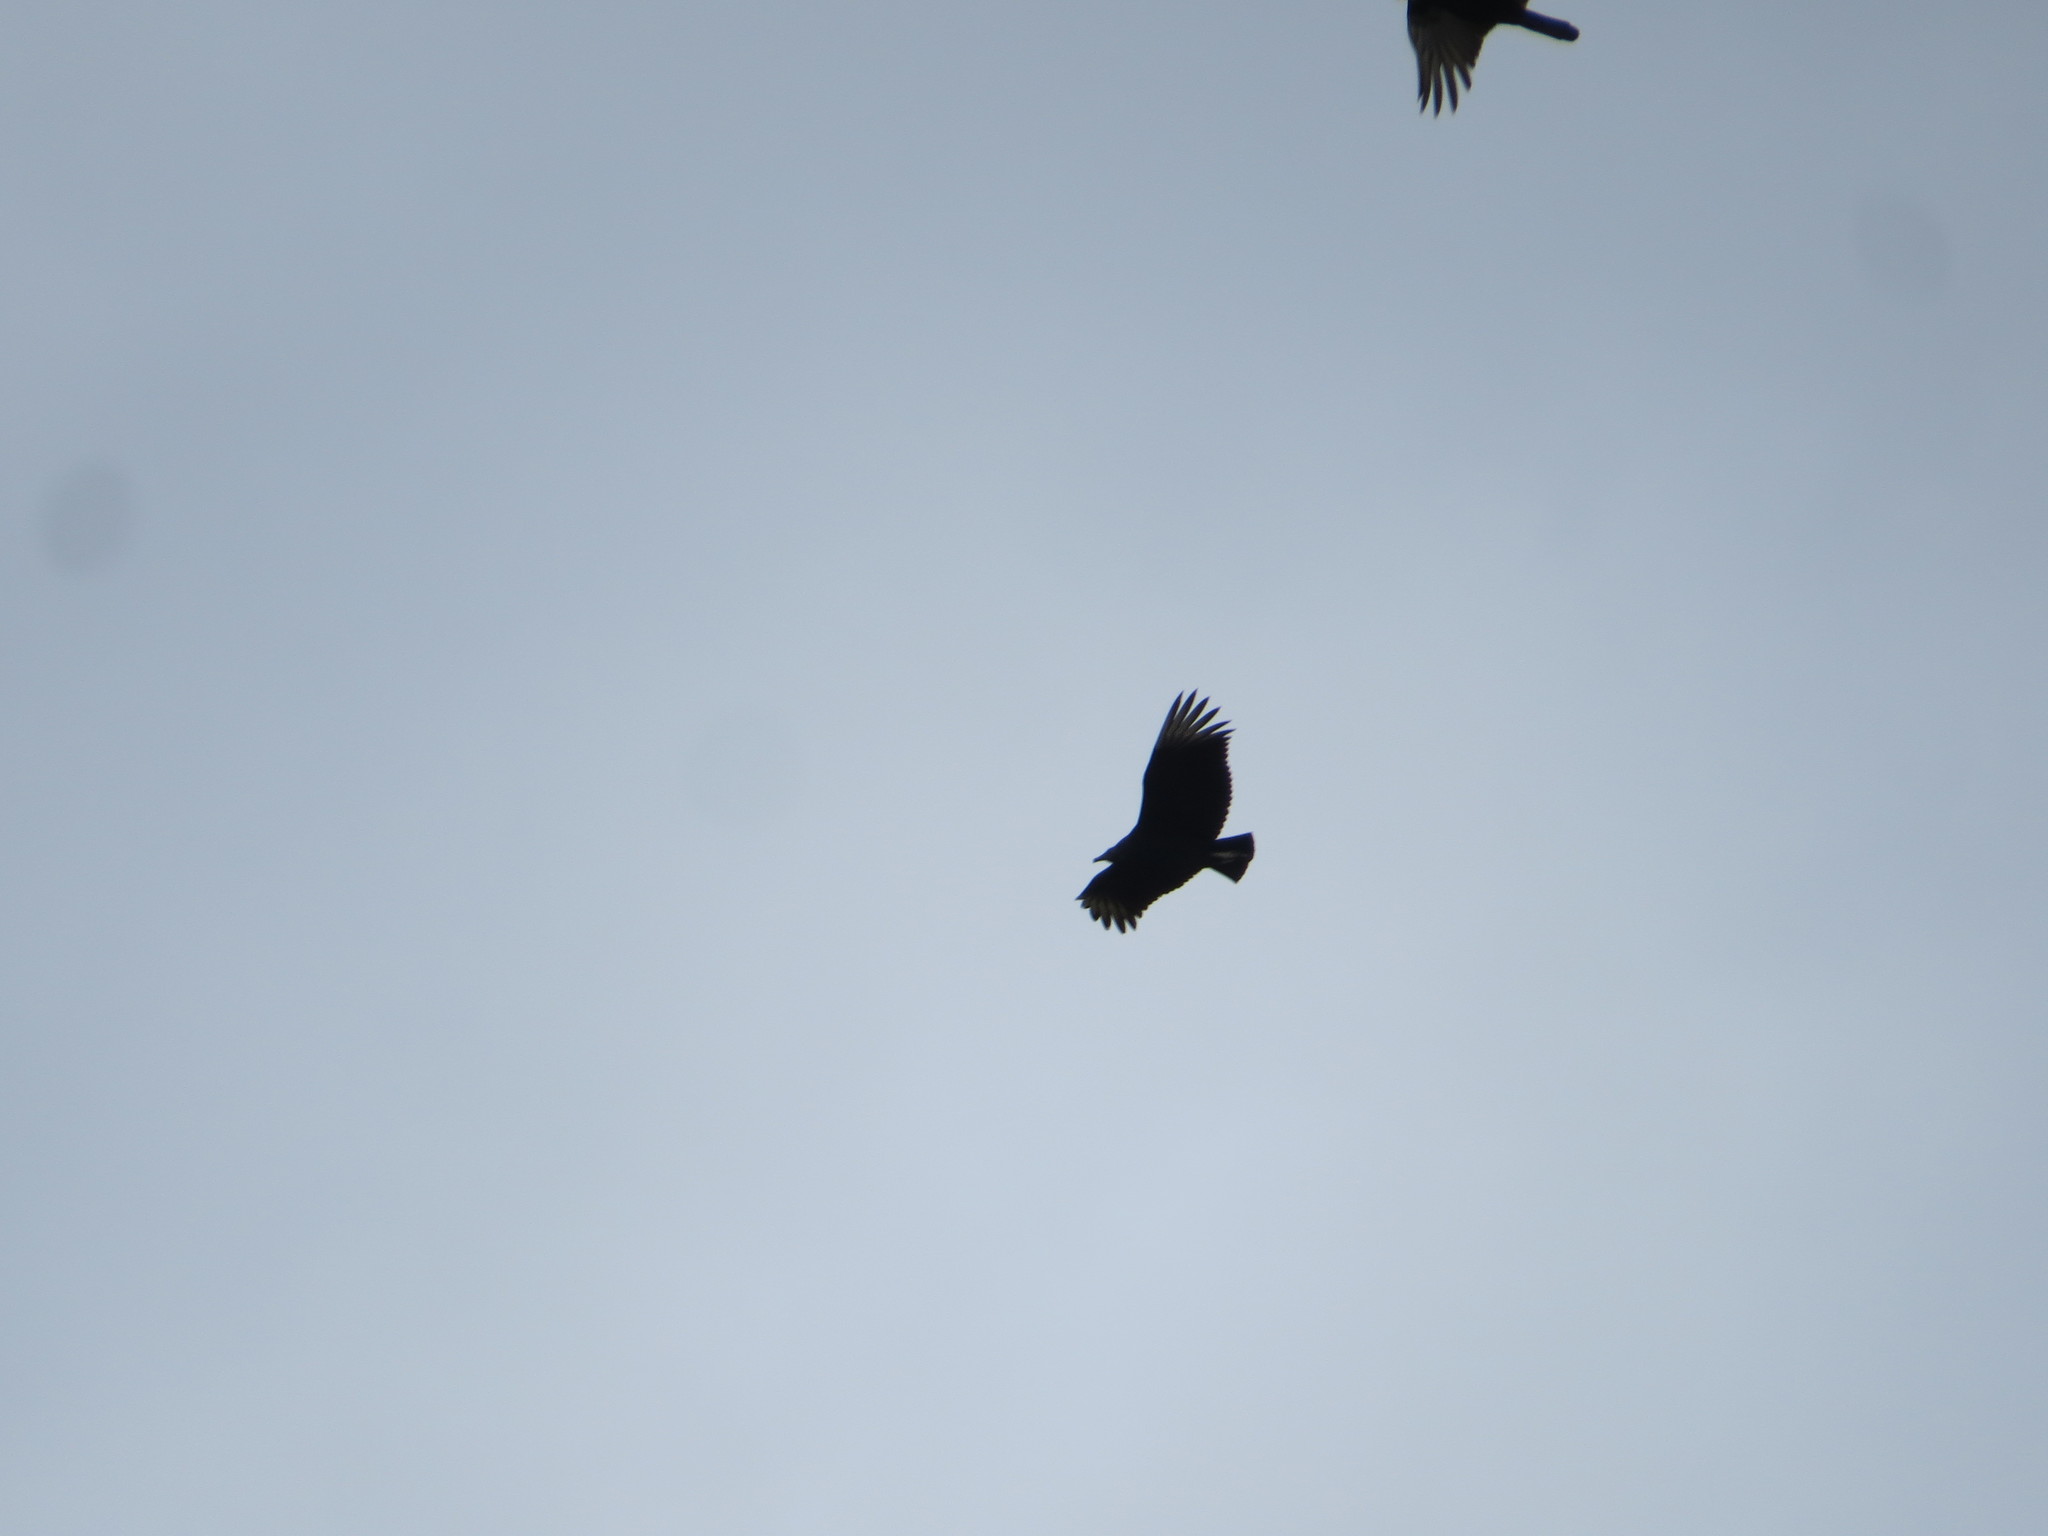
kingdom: Animalia
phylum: Chordata
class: Aves
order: Accipitriformes
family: Cathartidae
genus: Coragyps
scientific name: Coragyps atratus
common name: Black vulture
